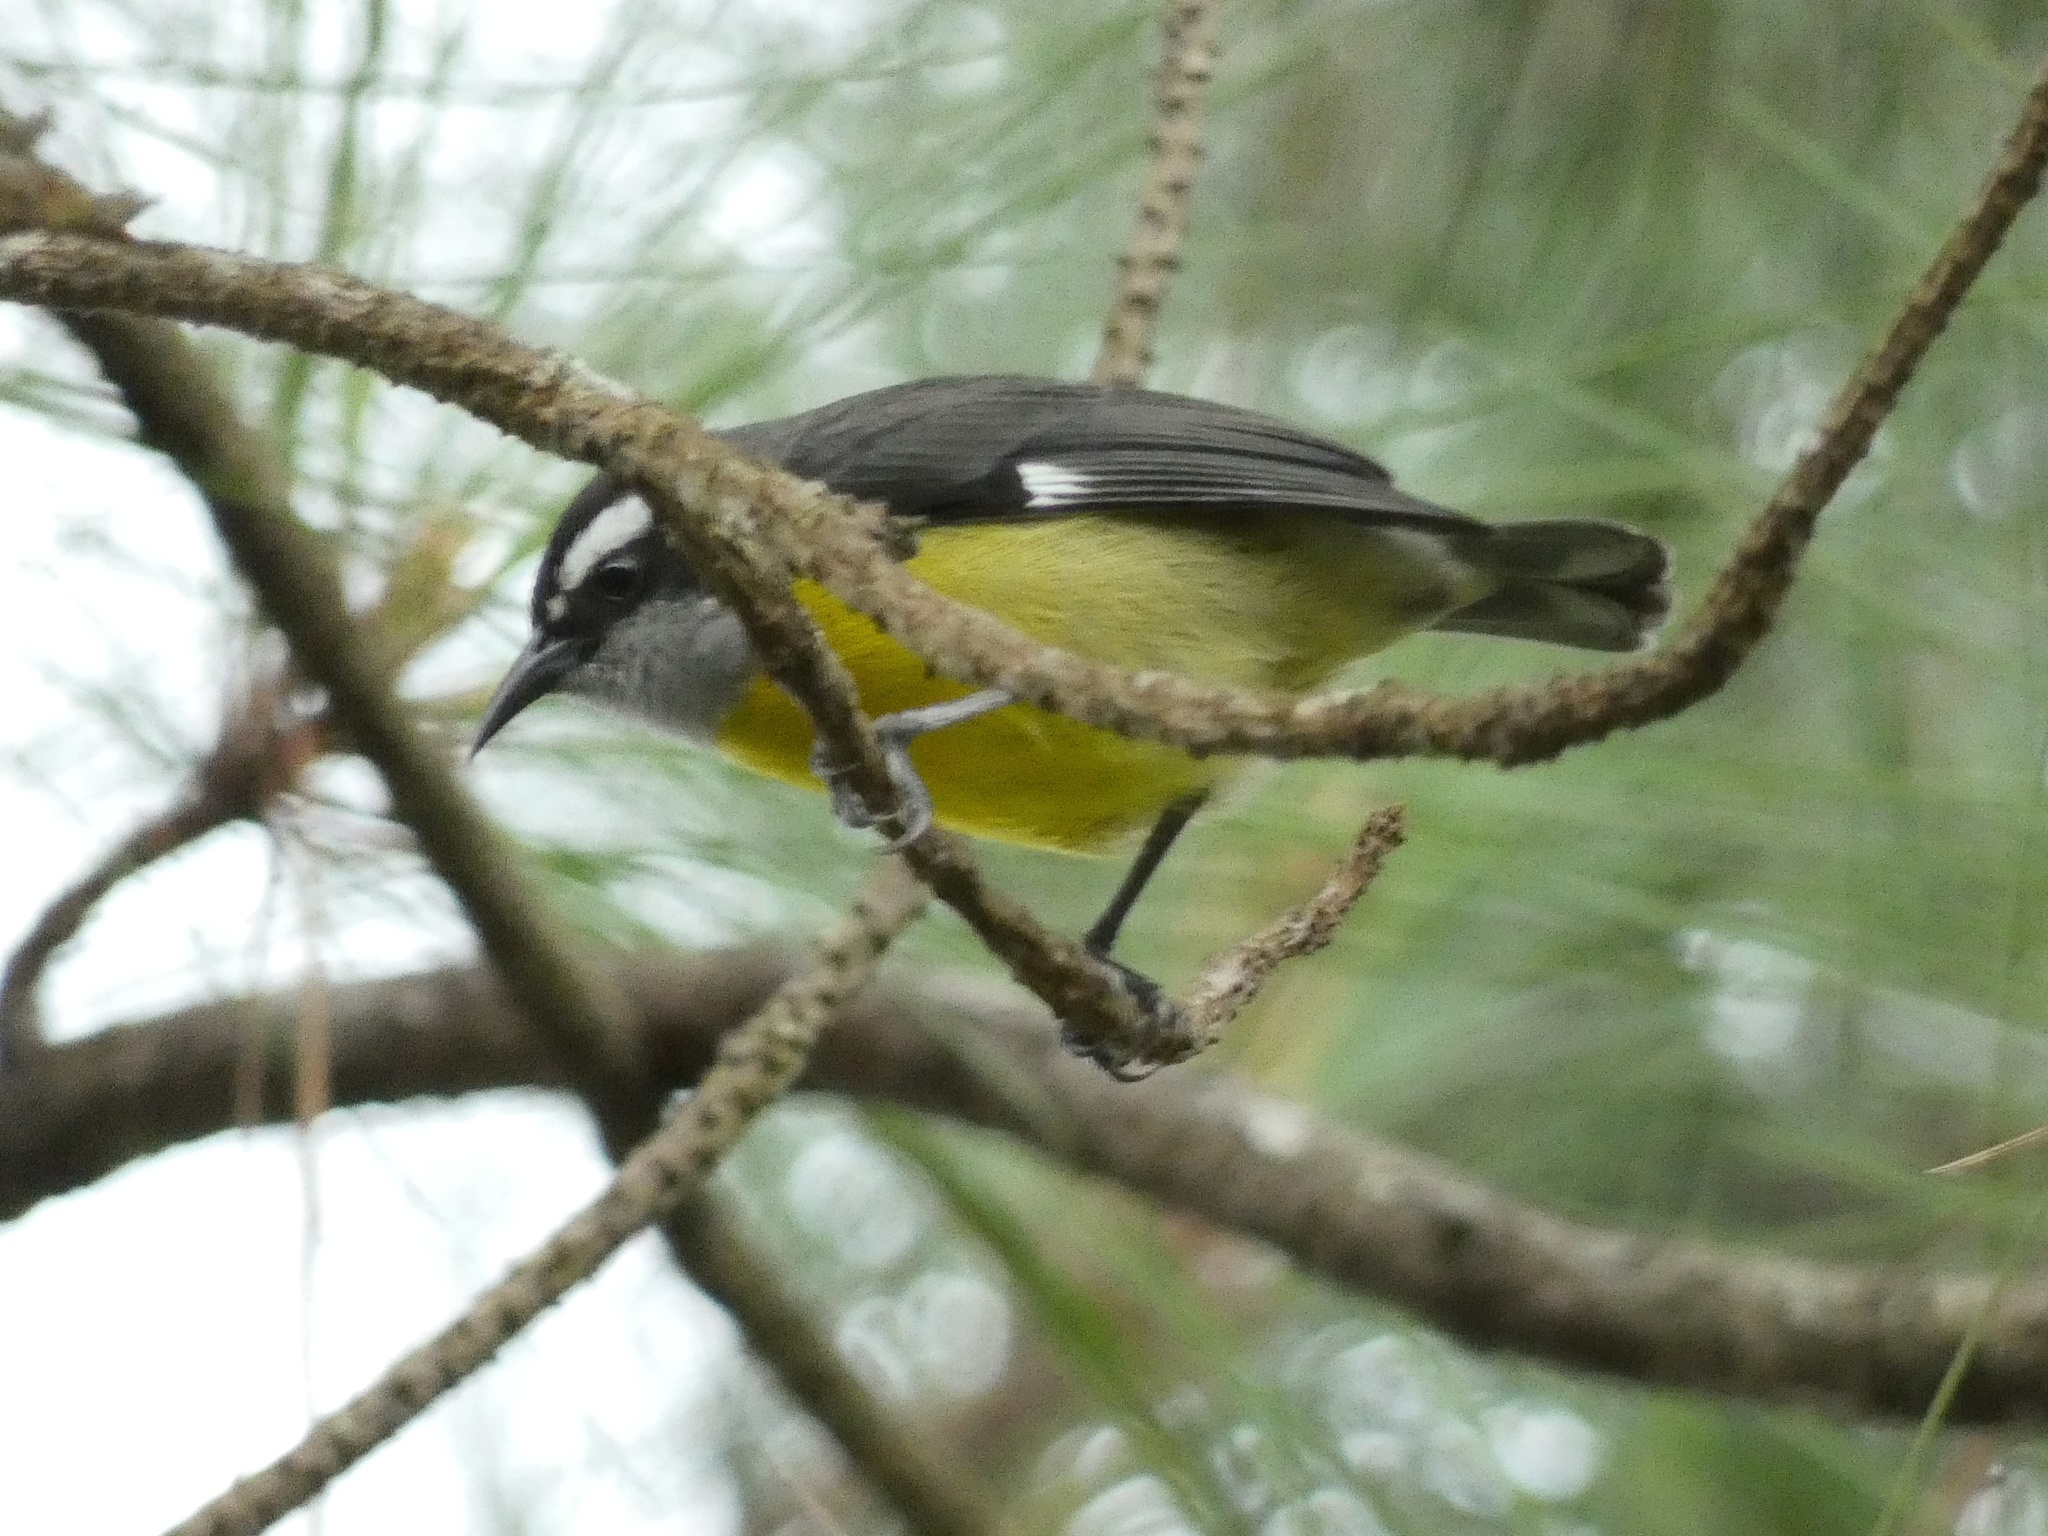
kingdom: Animalia
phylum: Chordata
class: Aves
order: Passeriformes
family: Thraupidae
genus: Coereba
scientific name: Coereba flaveola
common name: Bananaquit
